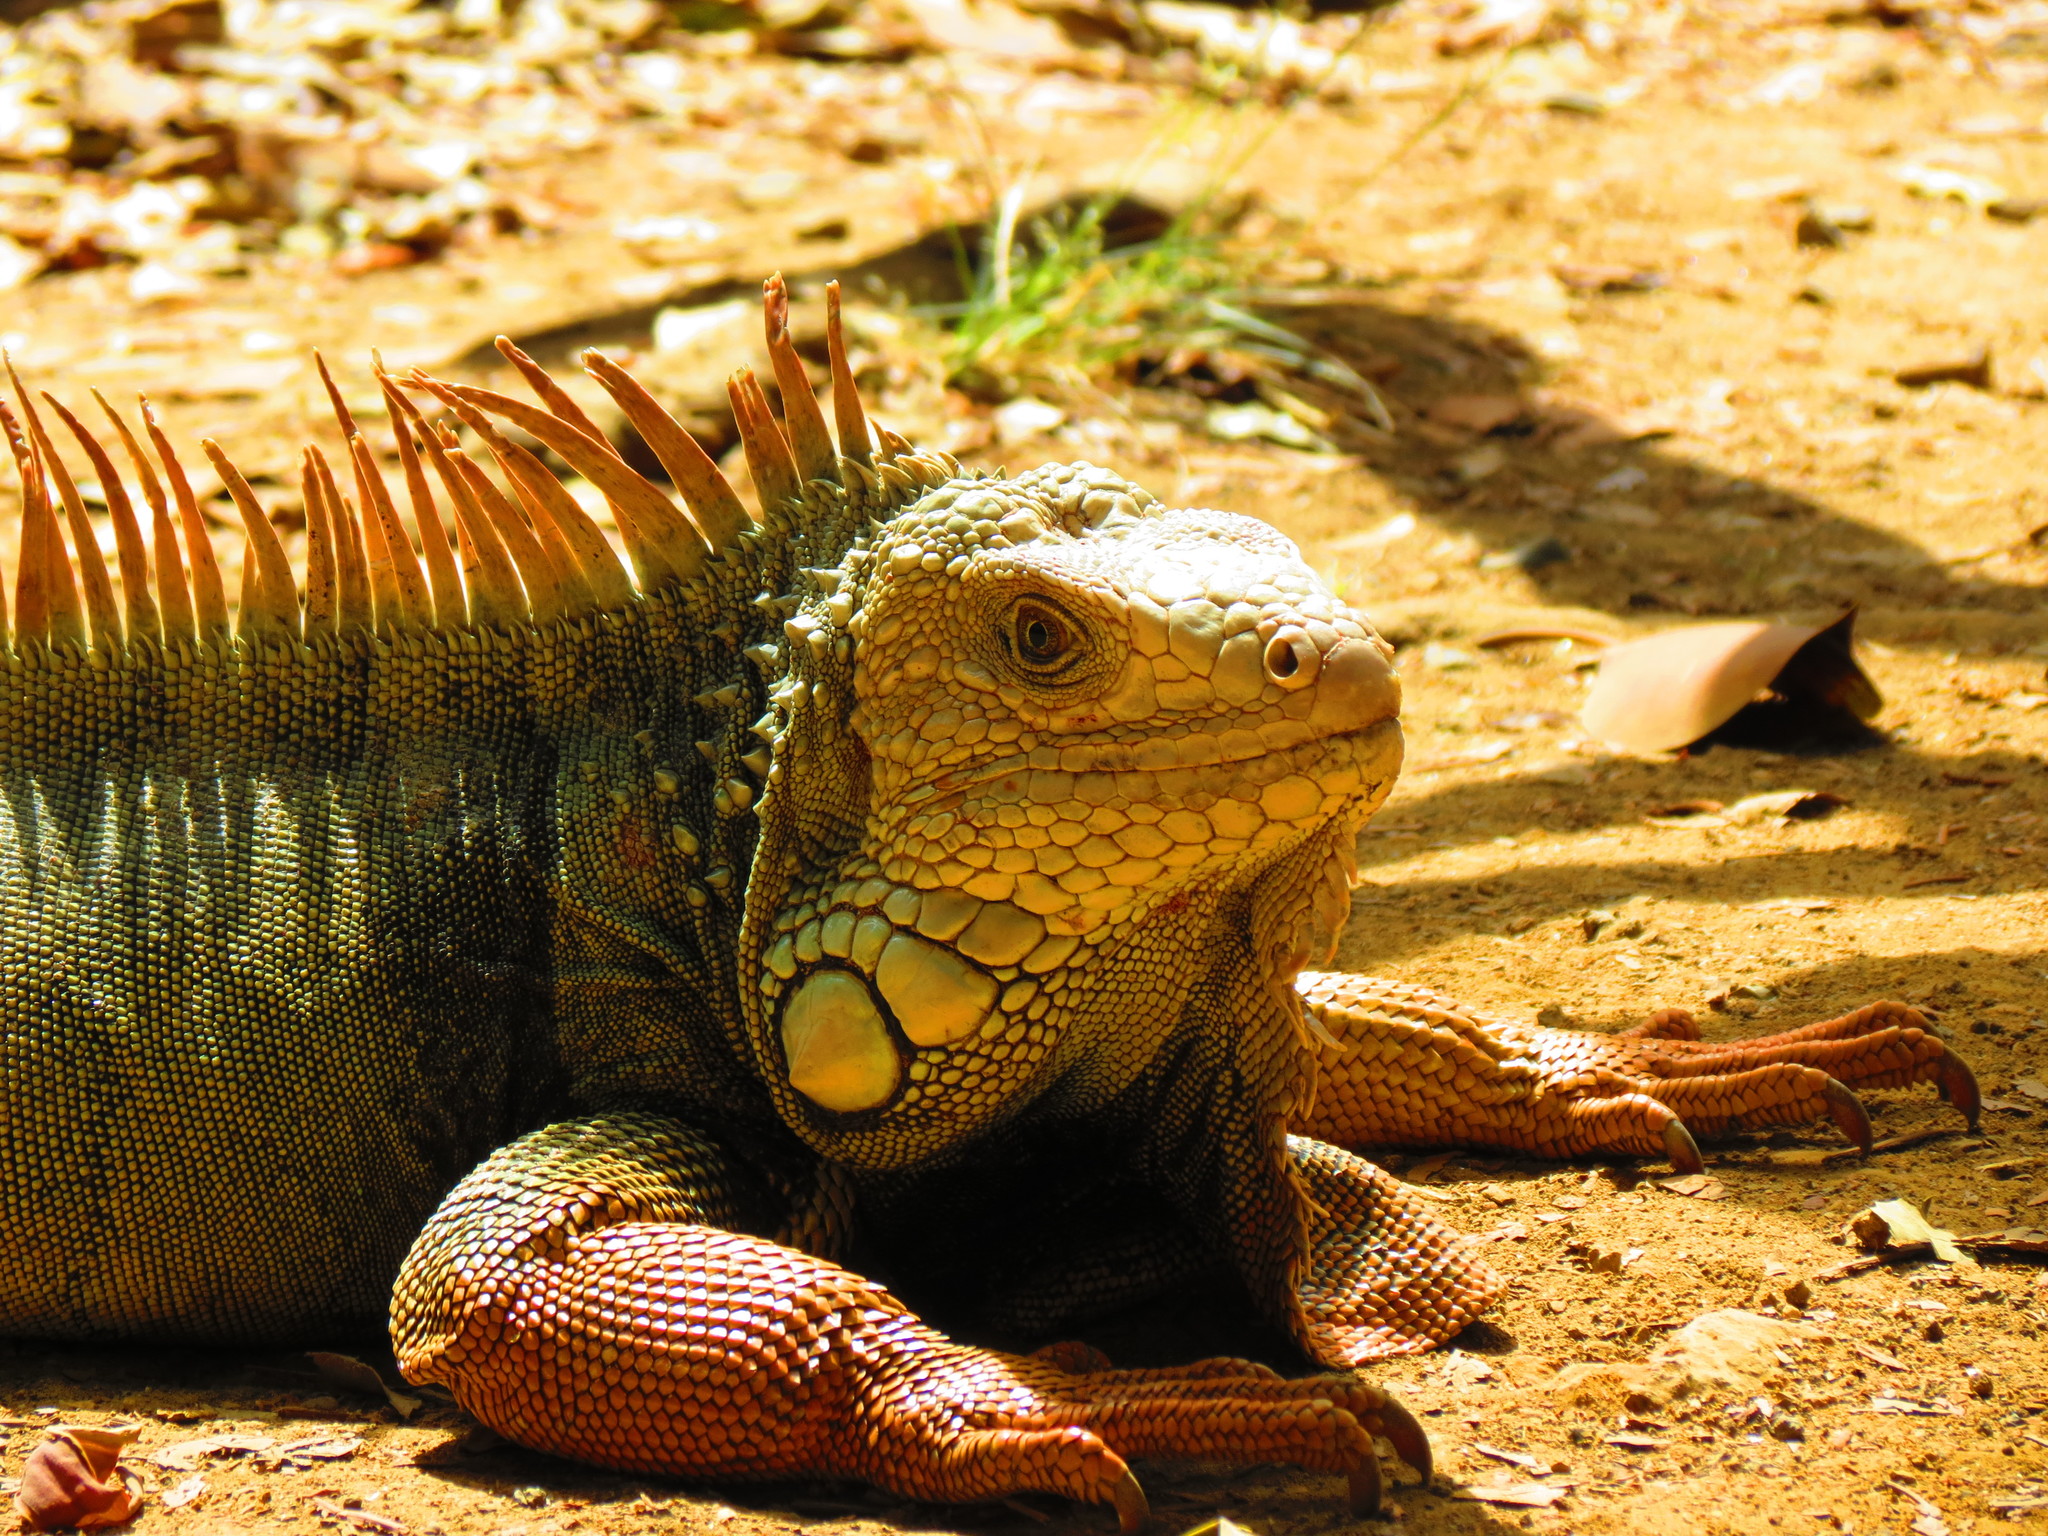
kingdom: Animalia
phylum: Chordata
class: Squamata
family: Iguanidae
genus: Iguana
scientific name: Iguana iguana
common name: Green iguana
